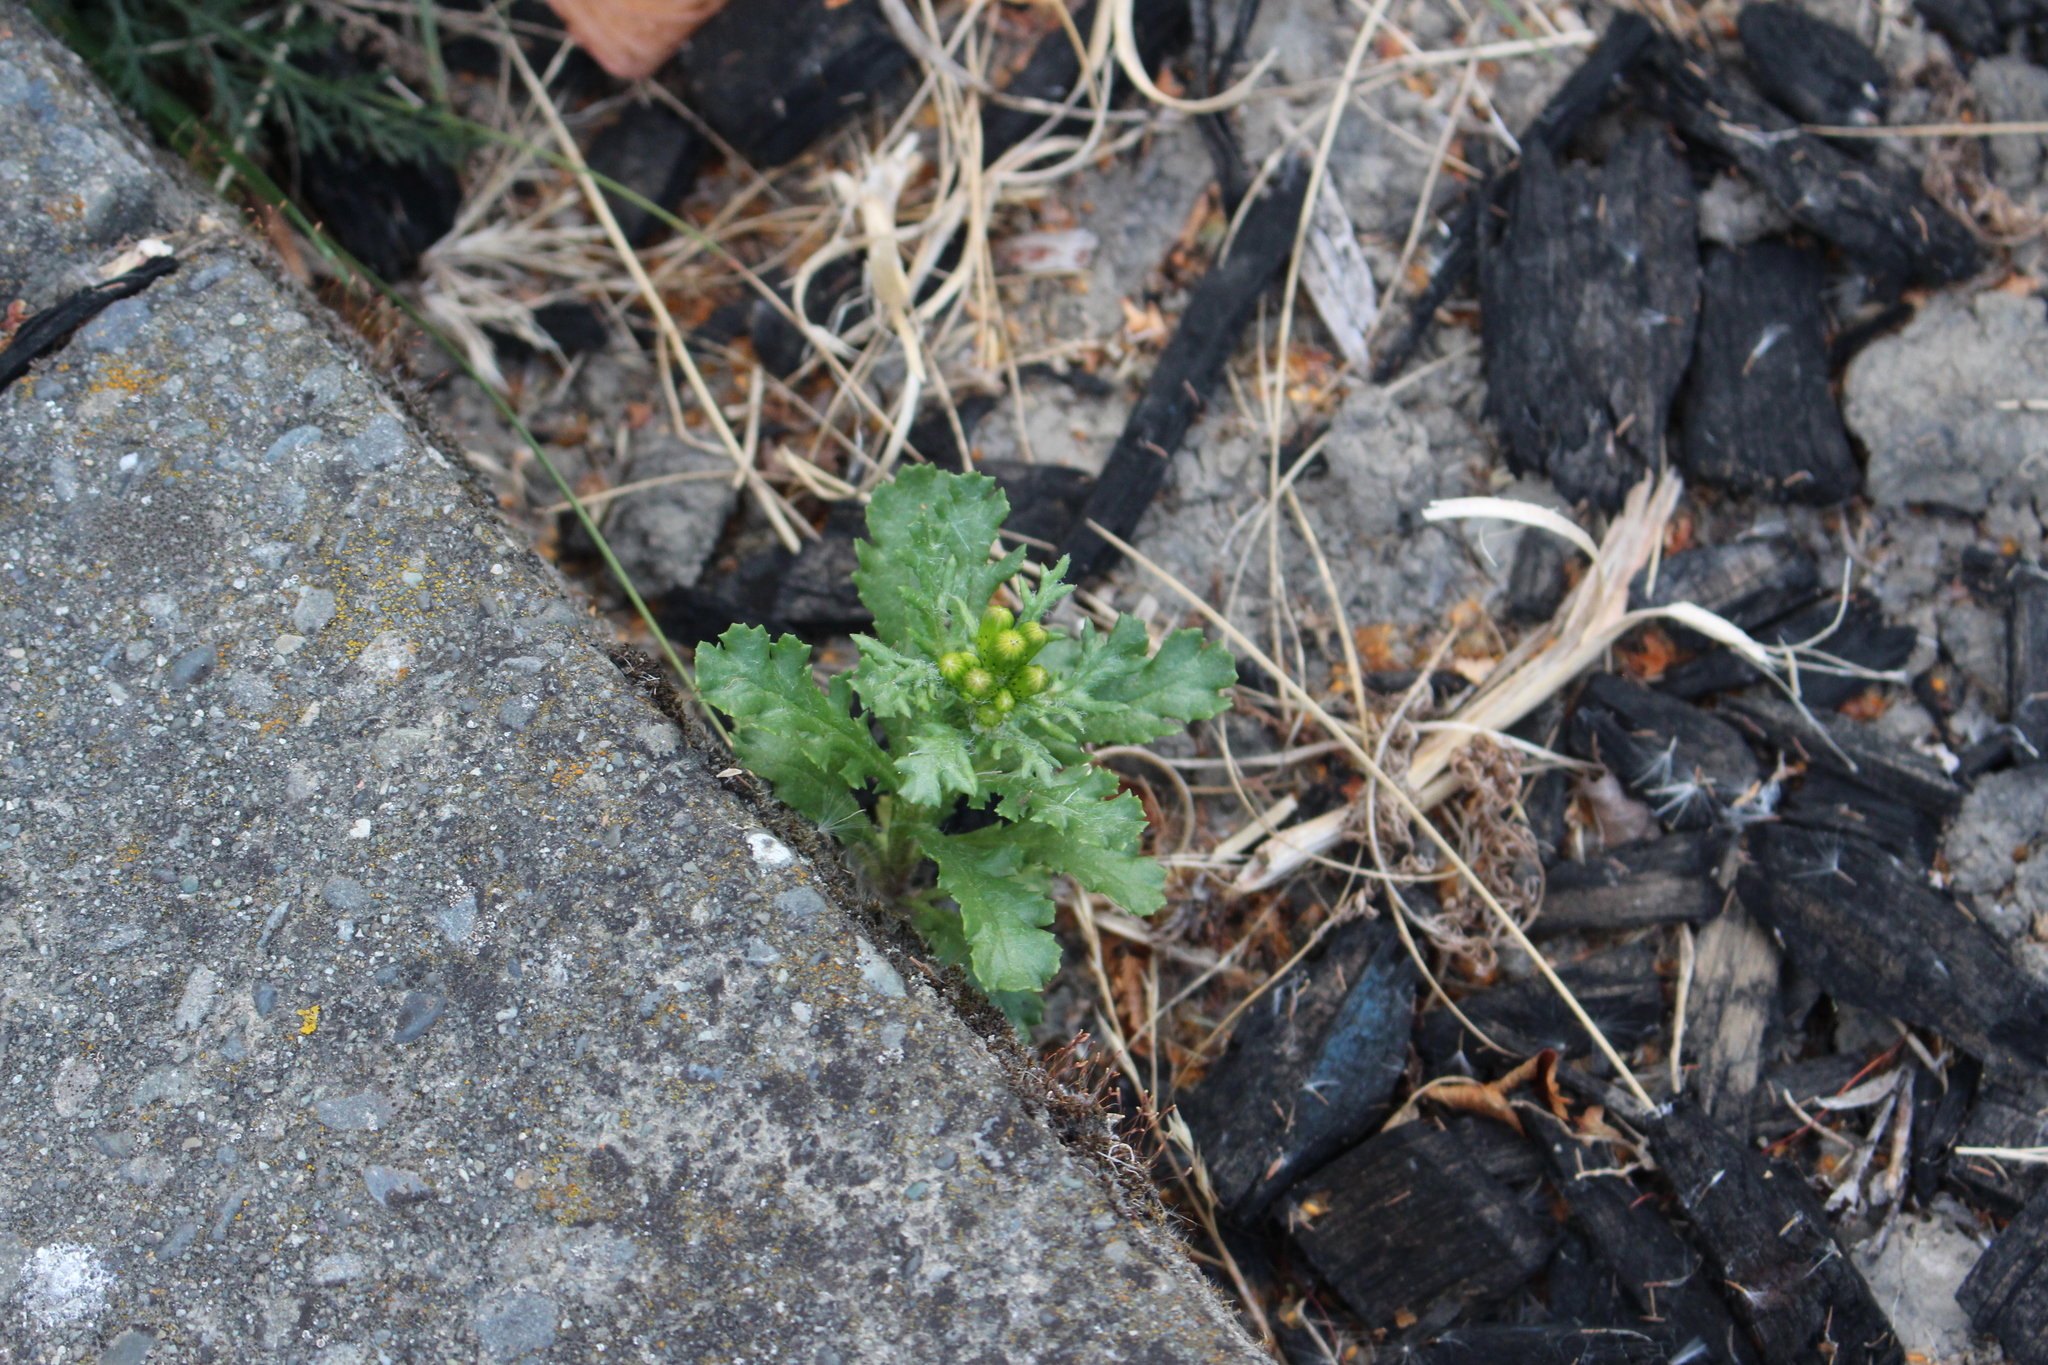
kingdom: Plantae
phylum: Tracheophyta
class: Magnoliopsida
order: Asterales
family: Asteraceae
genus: Senecio
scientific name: Senecio vulgaris
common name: Old-man-in-the-spring
